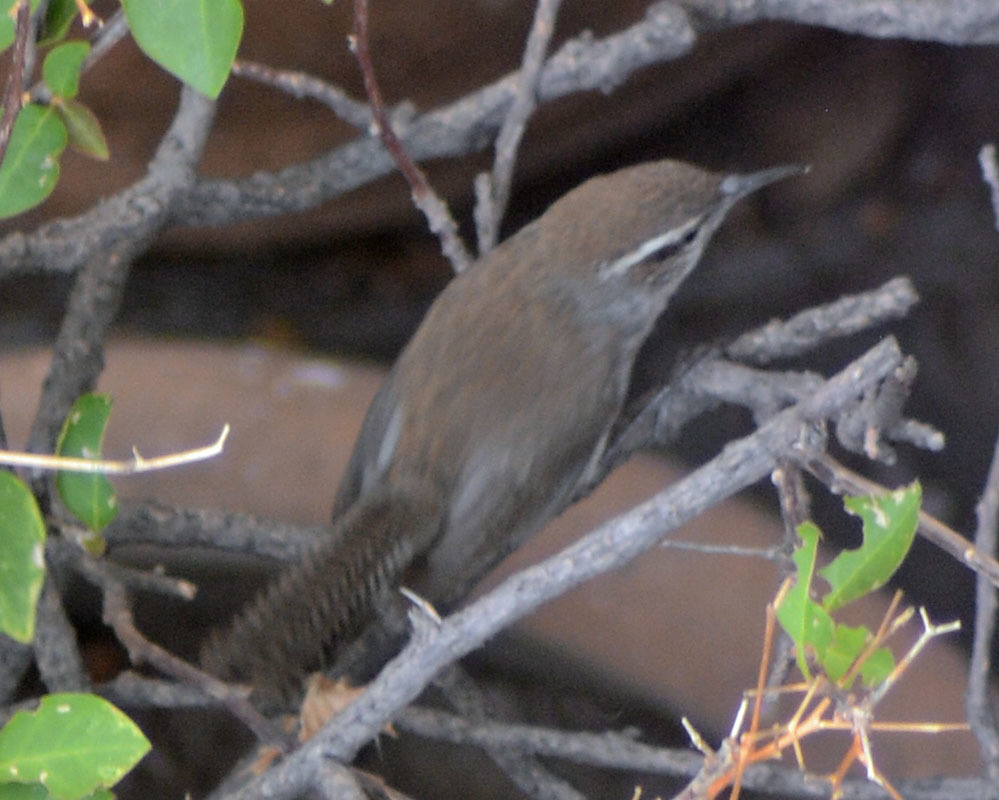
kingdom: Animalia
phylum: Chordata
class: Aves
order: Passeriformes
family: Troglodytidae
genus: Thryomanes
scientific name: Thryomanes bewickii
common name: Bewick's wren
